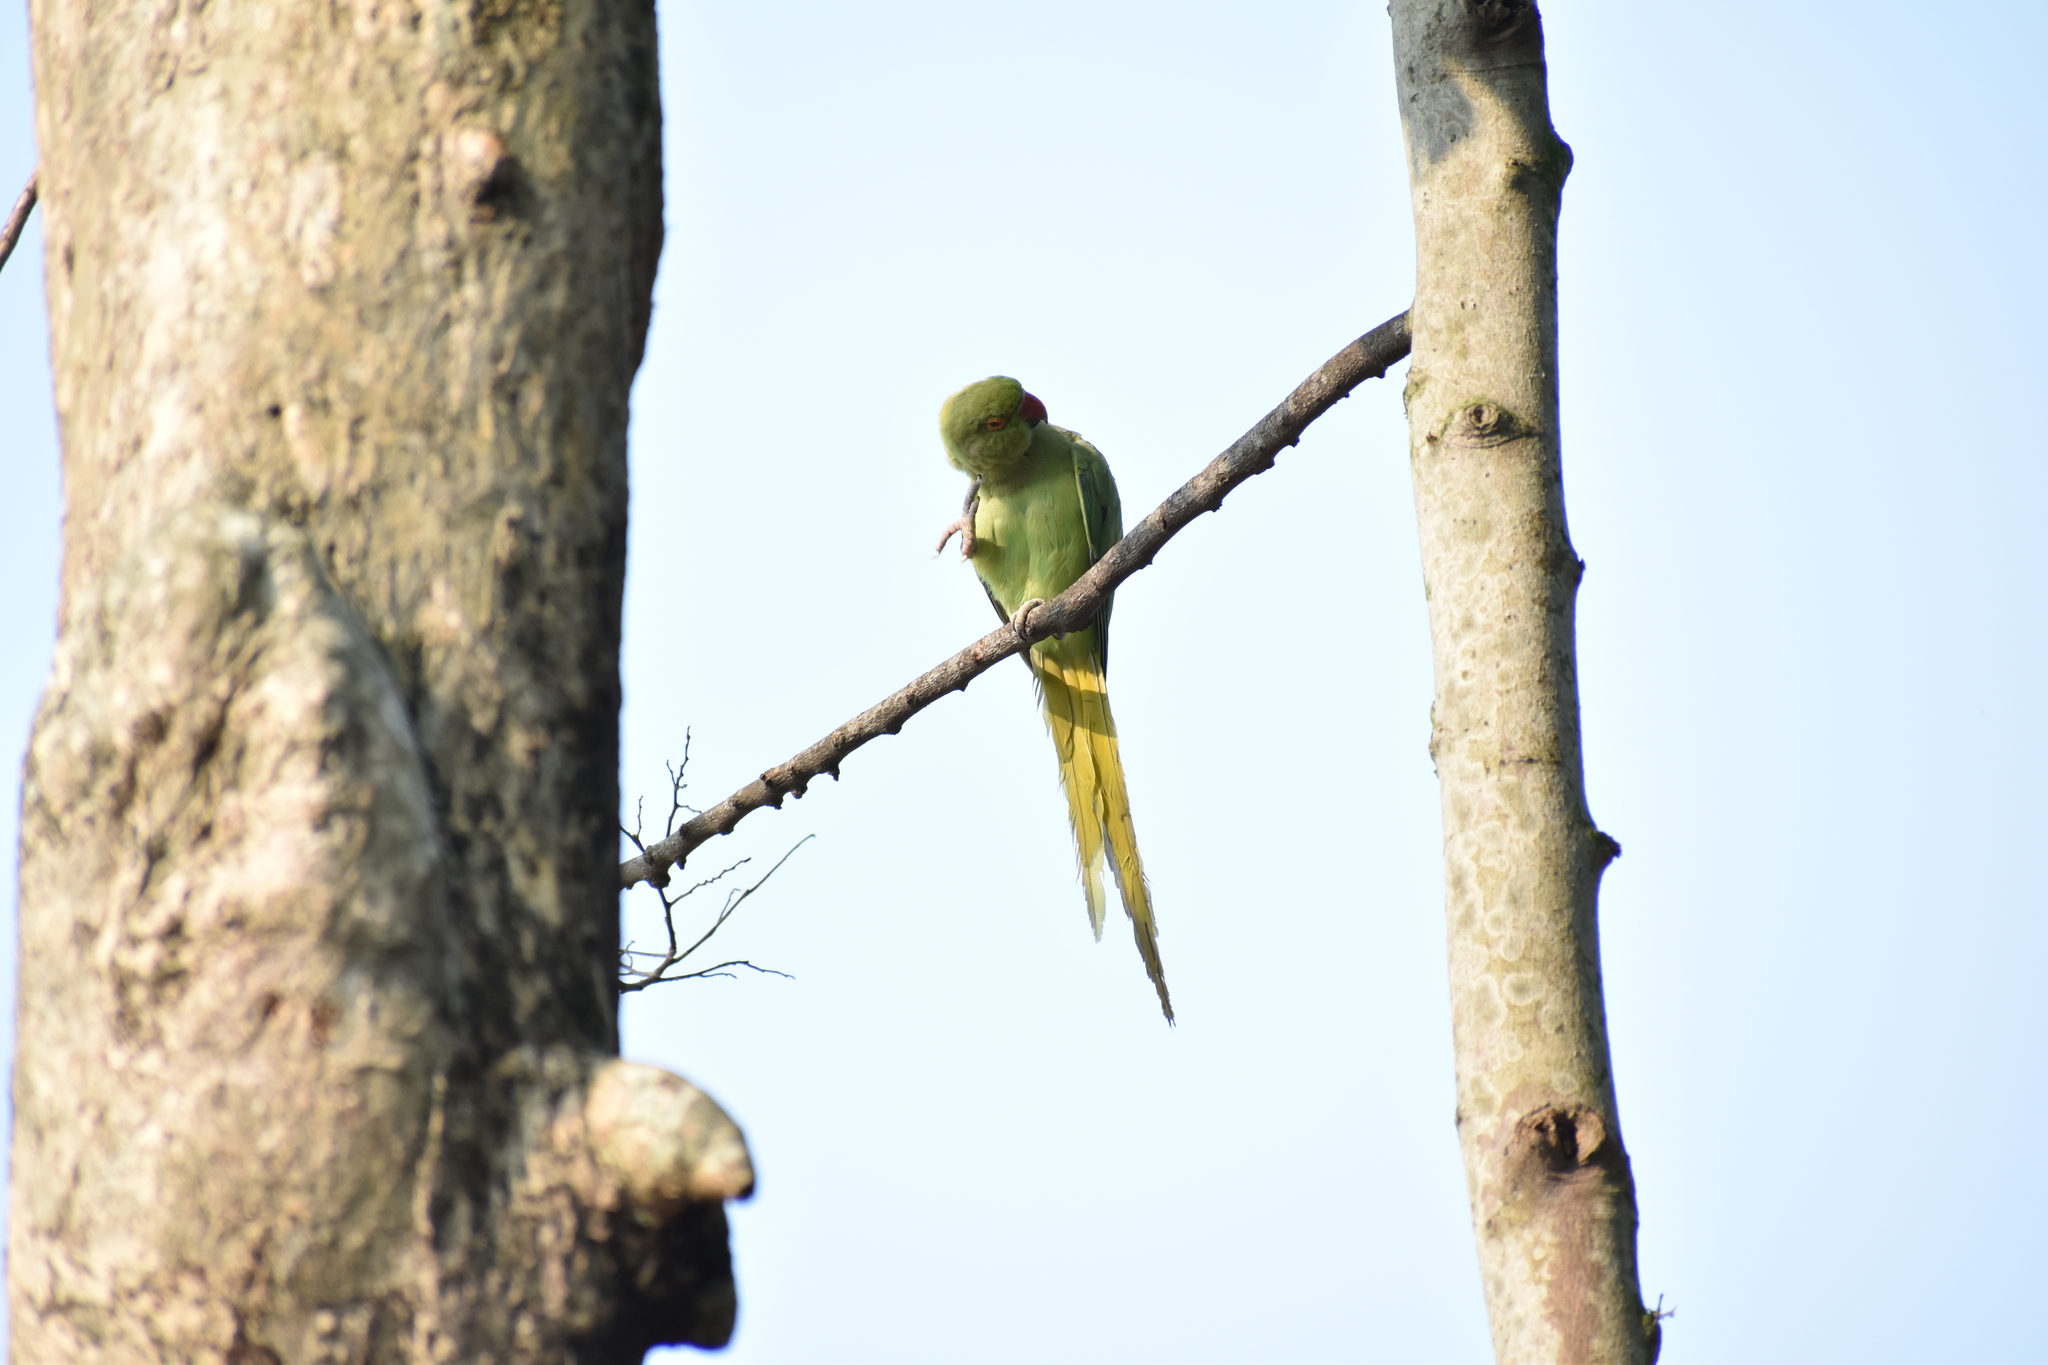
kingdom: Animalia
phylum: Chordata
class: Aves
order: Psittaciformes
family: Psittacidae
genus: Psittacula
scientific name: Psittacula krameri
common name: Rose-ringed parakeet
